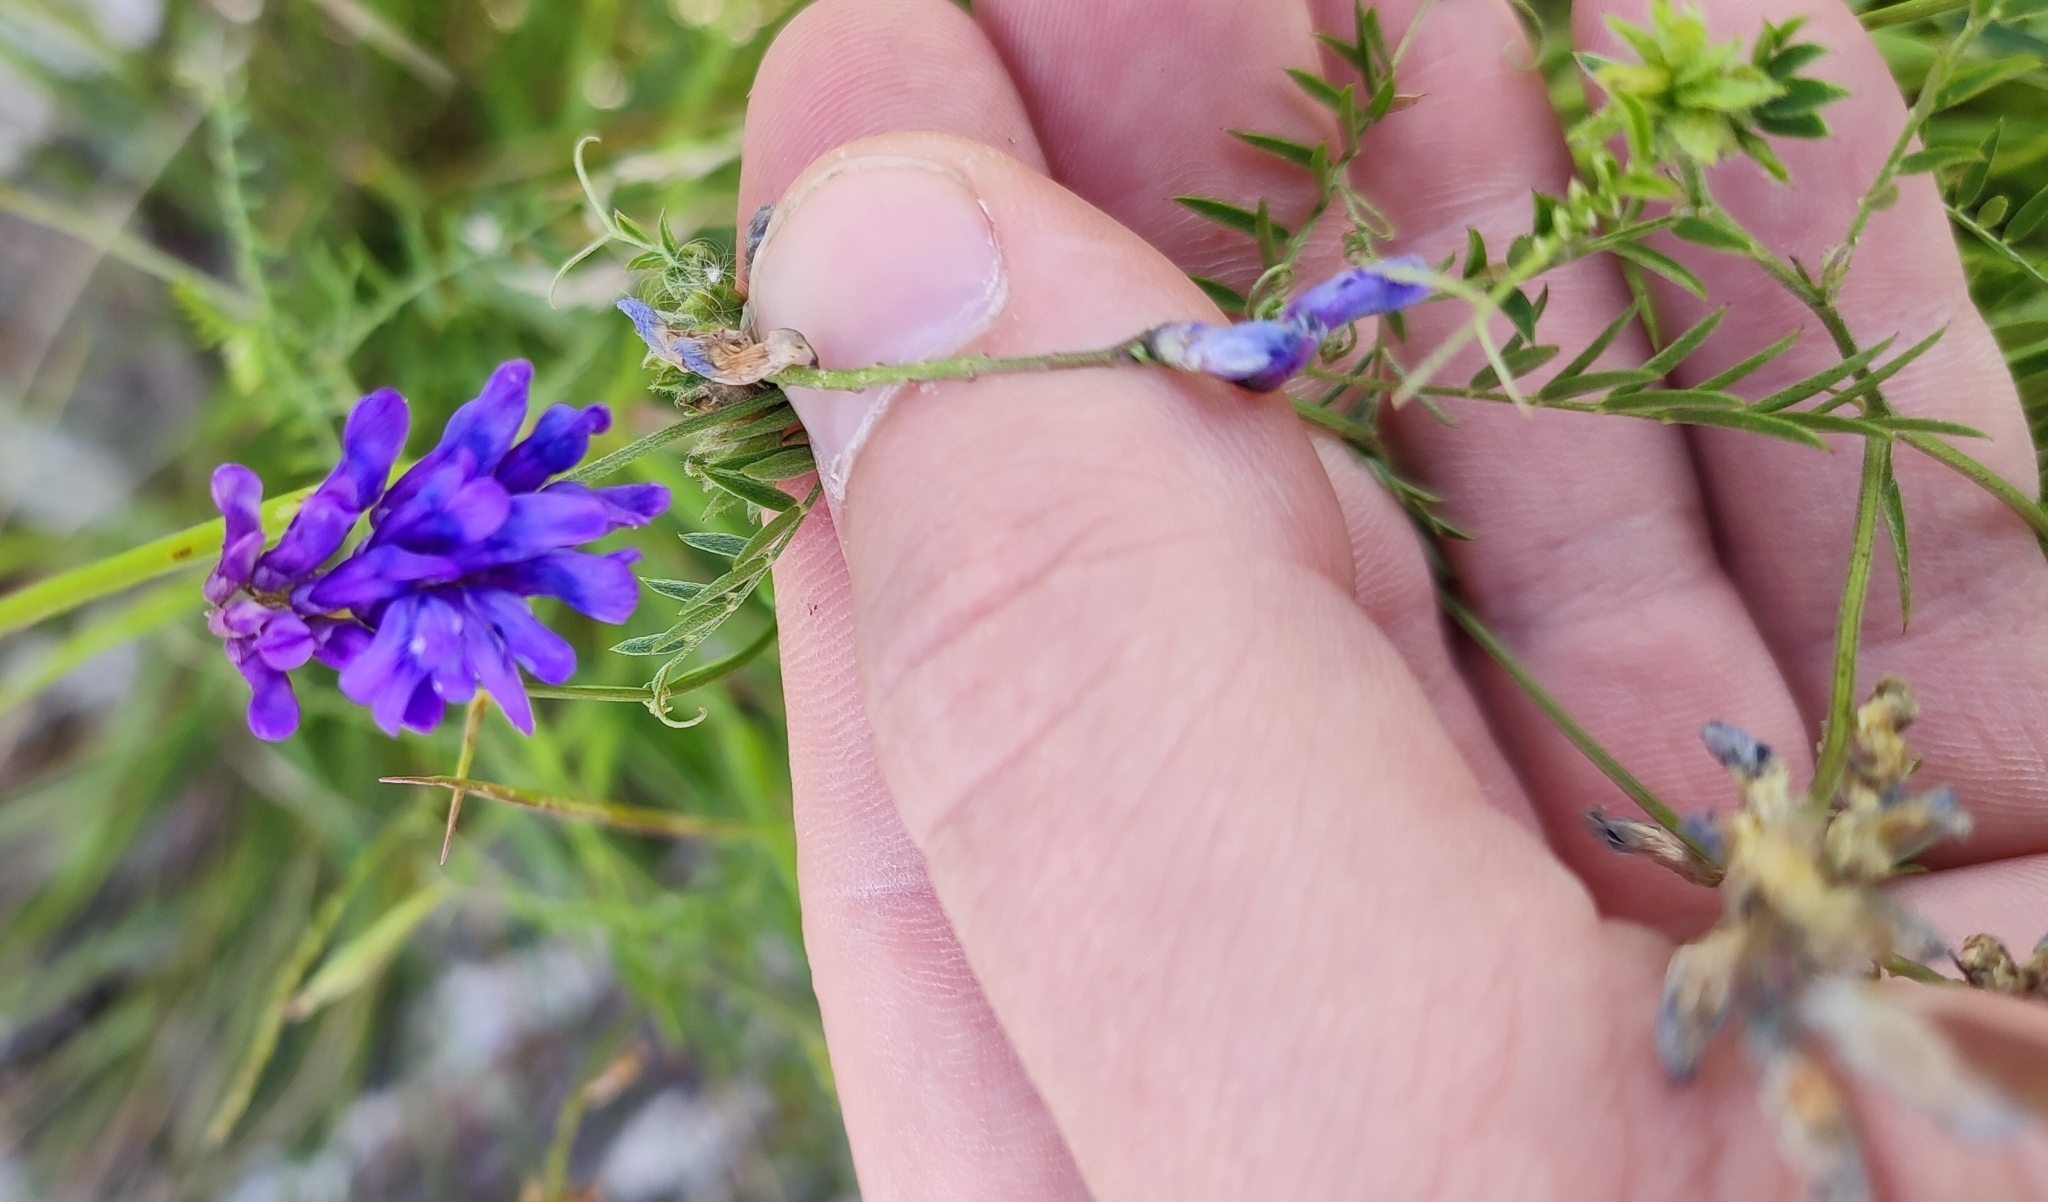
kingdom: Plantae
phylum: Tracheophyta
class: Magnoliopsida
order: Fabales
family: Fabaceae
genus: Vicia
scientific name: Vicia cracca
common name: Bird vetch
